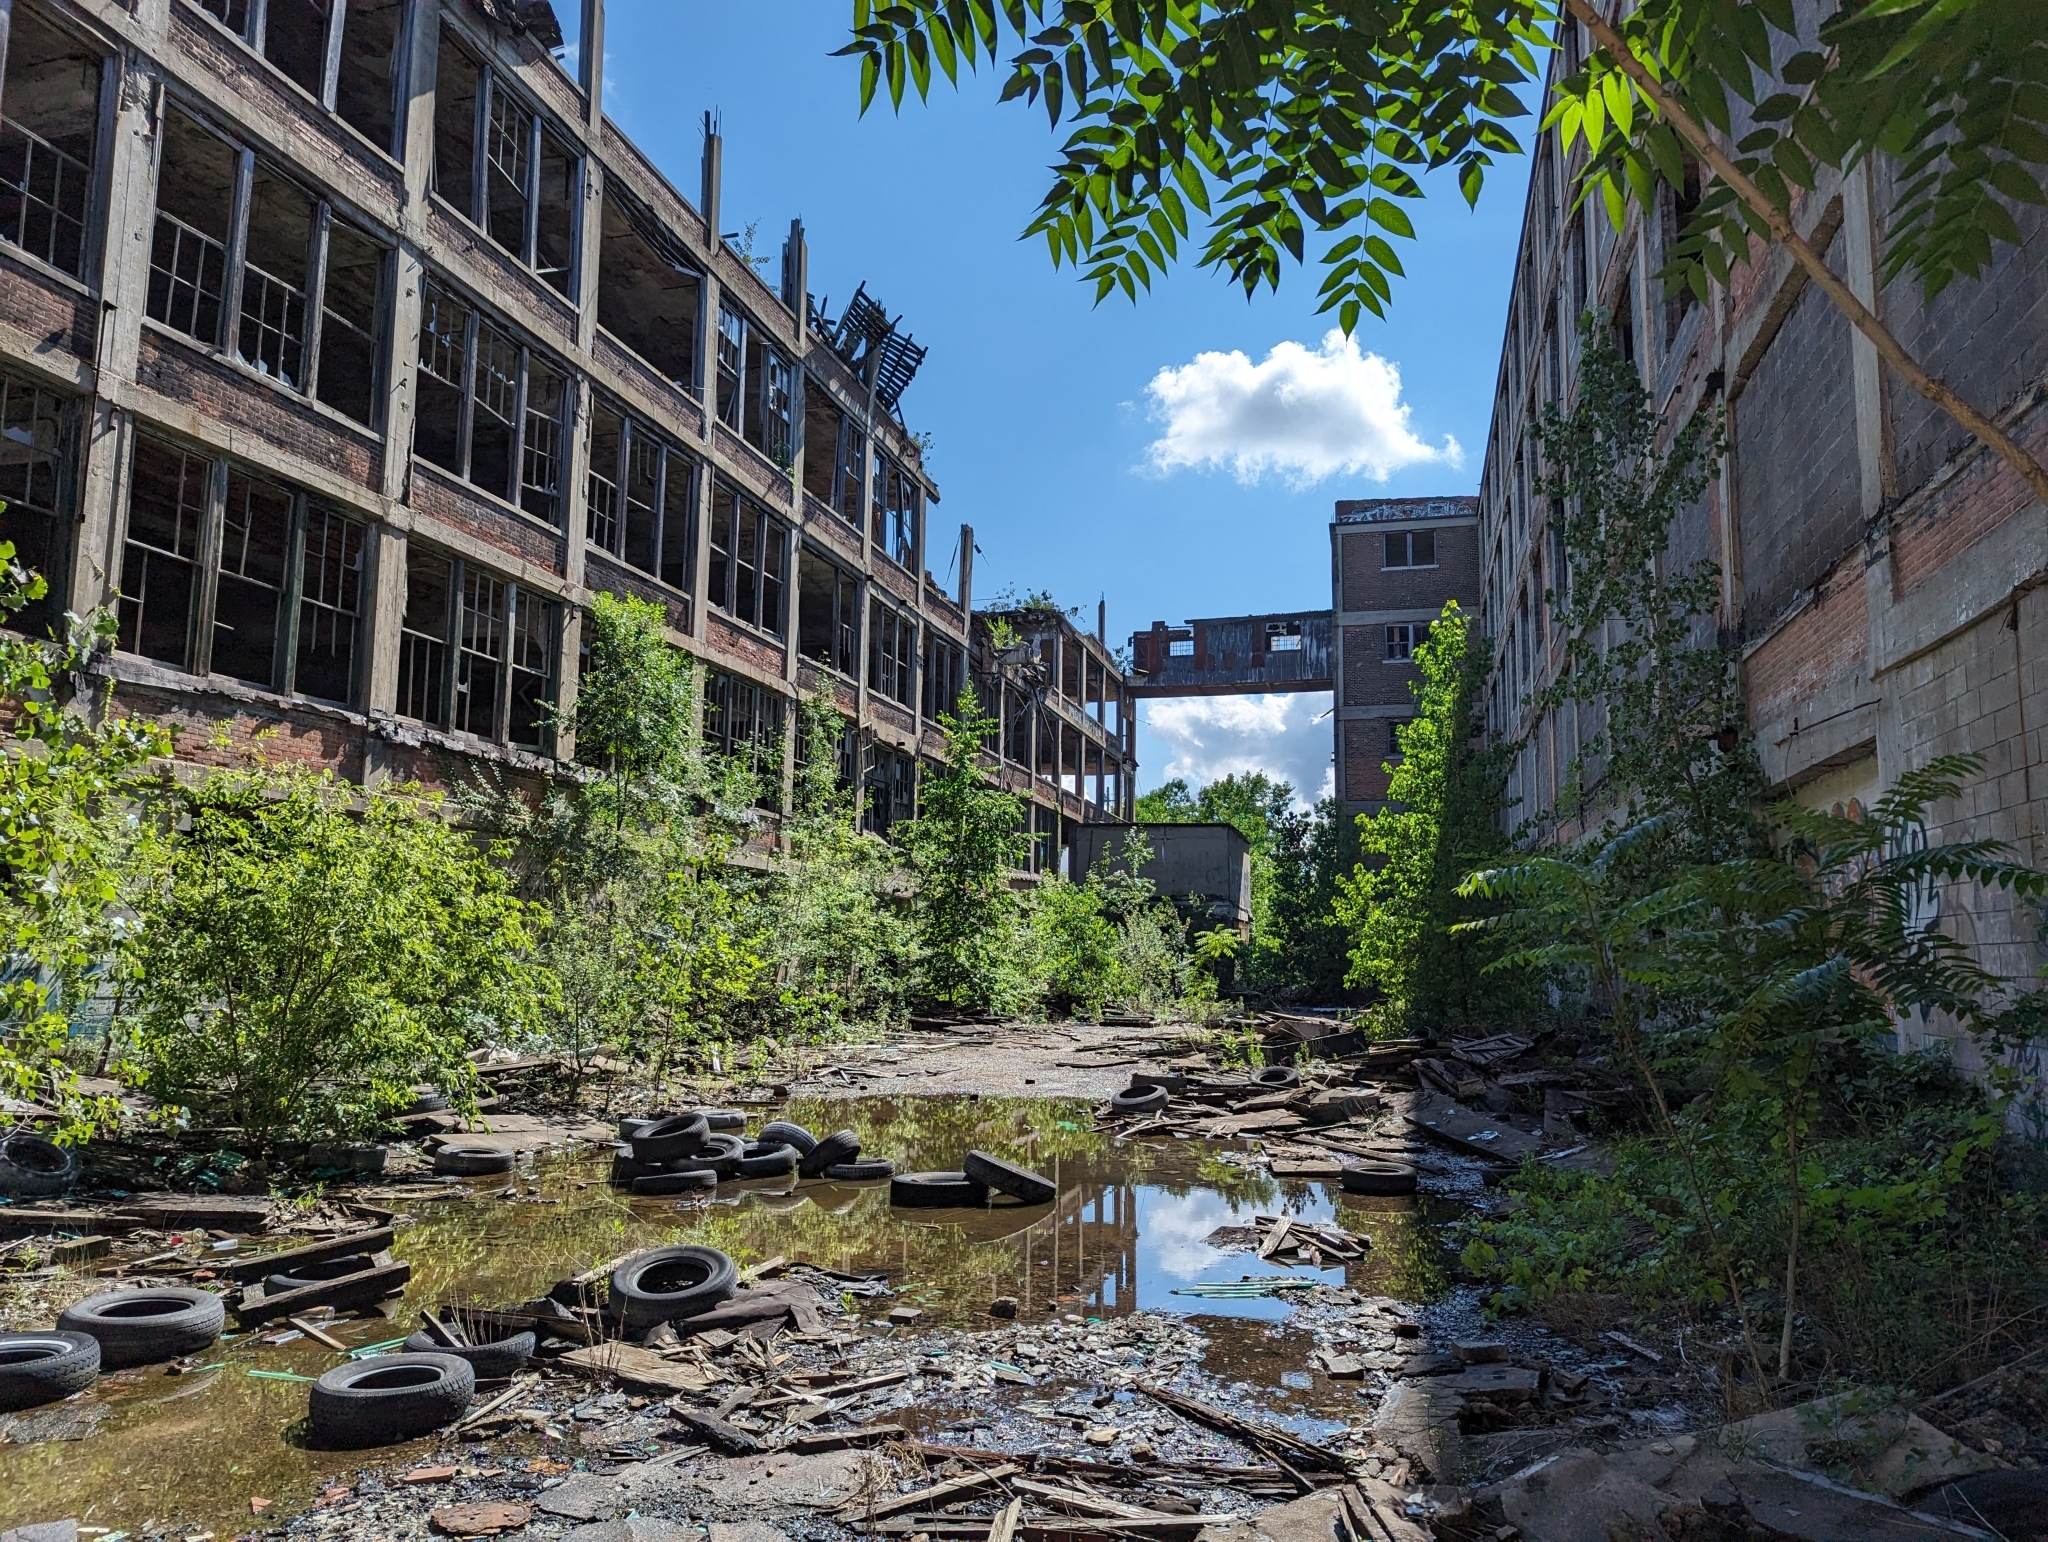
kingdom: Plantae
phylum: Tracheophyta
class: Magnoliopsida
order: Sapindales
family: Simaroubaceae
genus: Ailanthus
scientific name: Ailanthus altissima
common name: Tree-of-heaven
